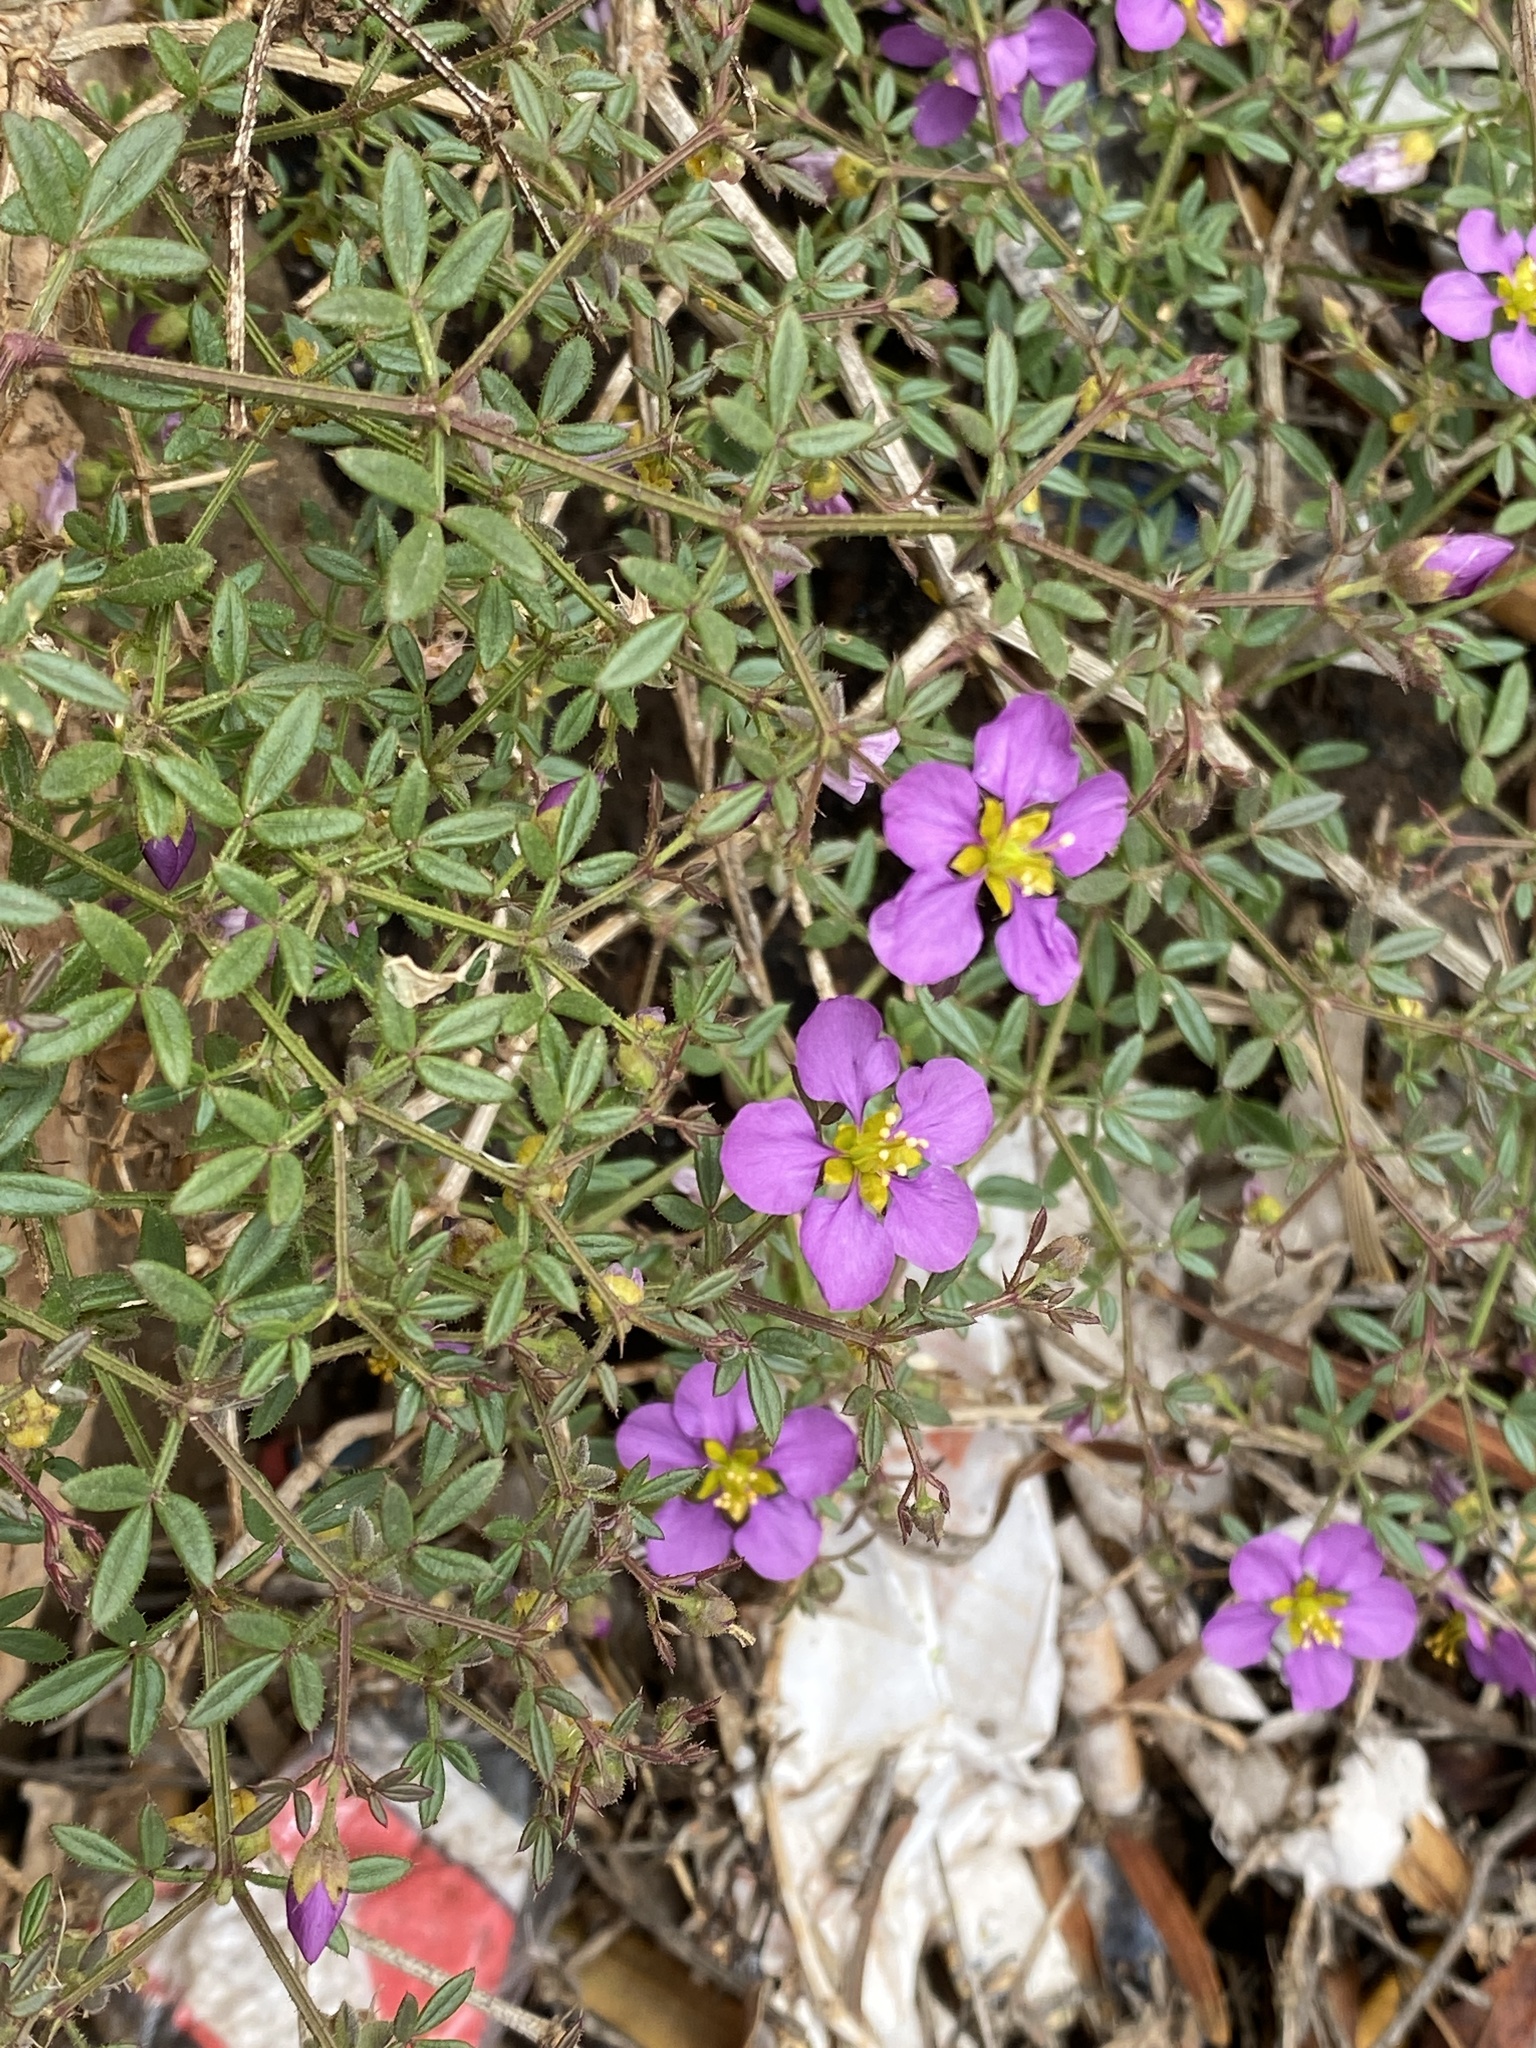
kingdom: Plantae
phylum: Tracheophyta
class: Magnoliopsida
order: Zygophyllales
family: Zygophyllaceae
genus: Fagonia
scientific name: Fagonia cretica
